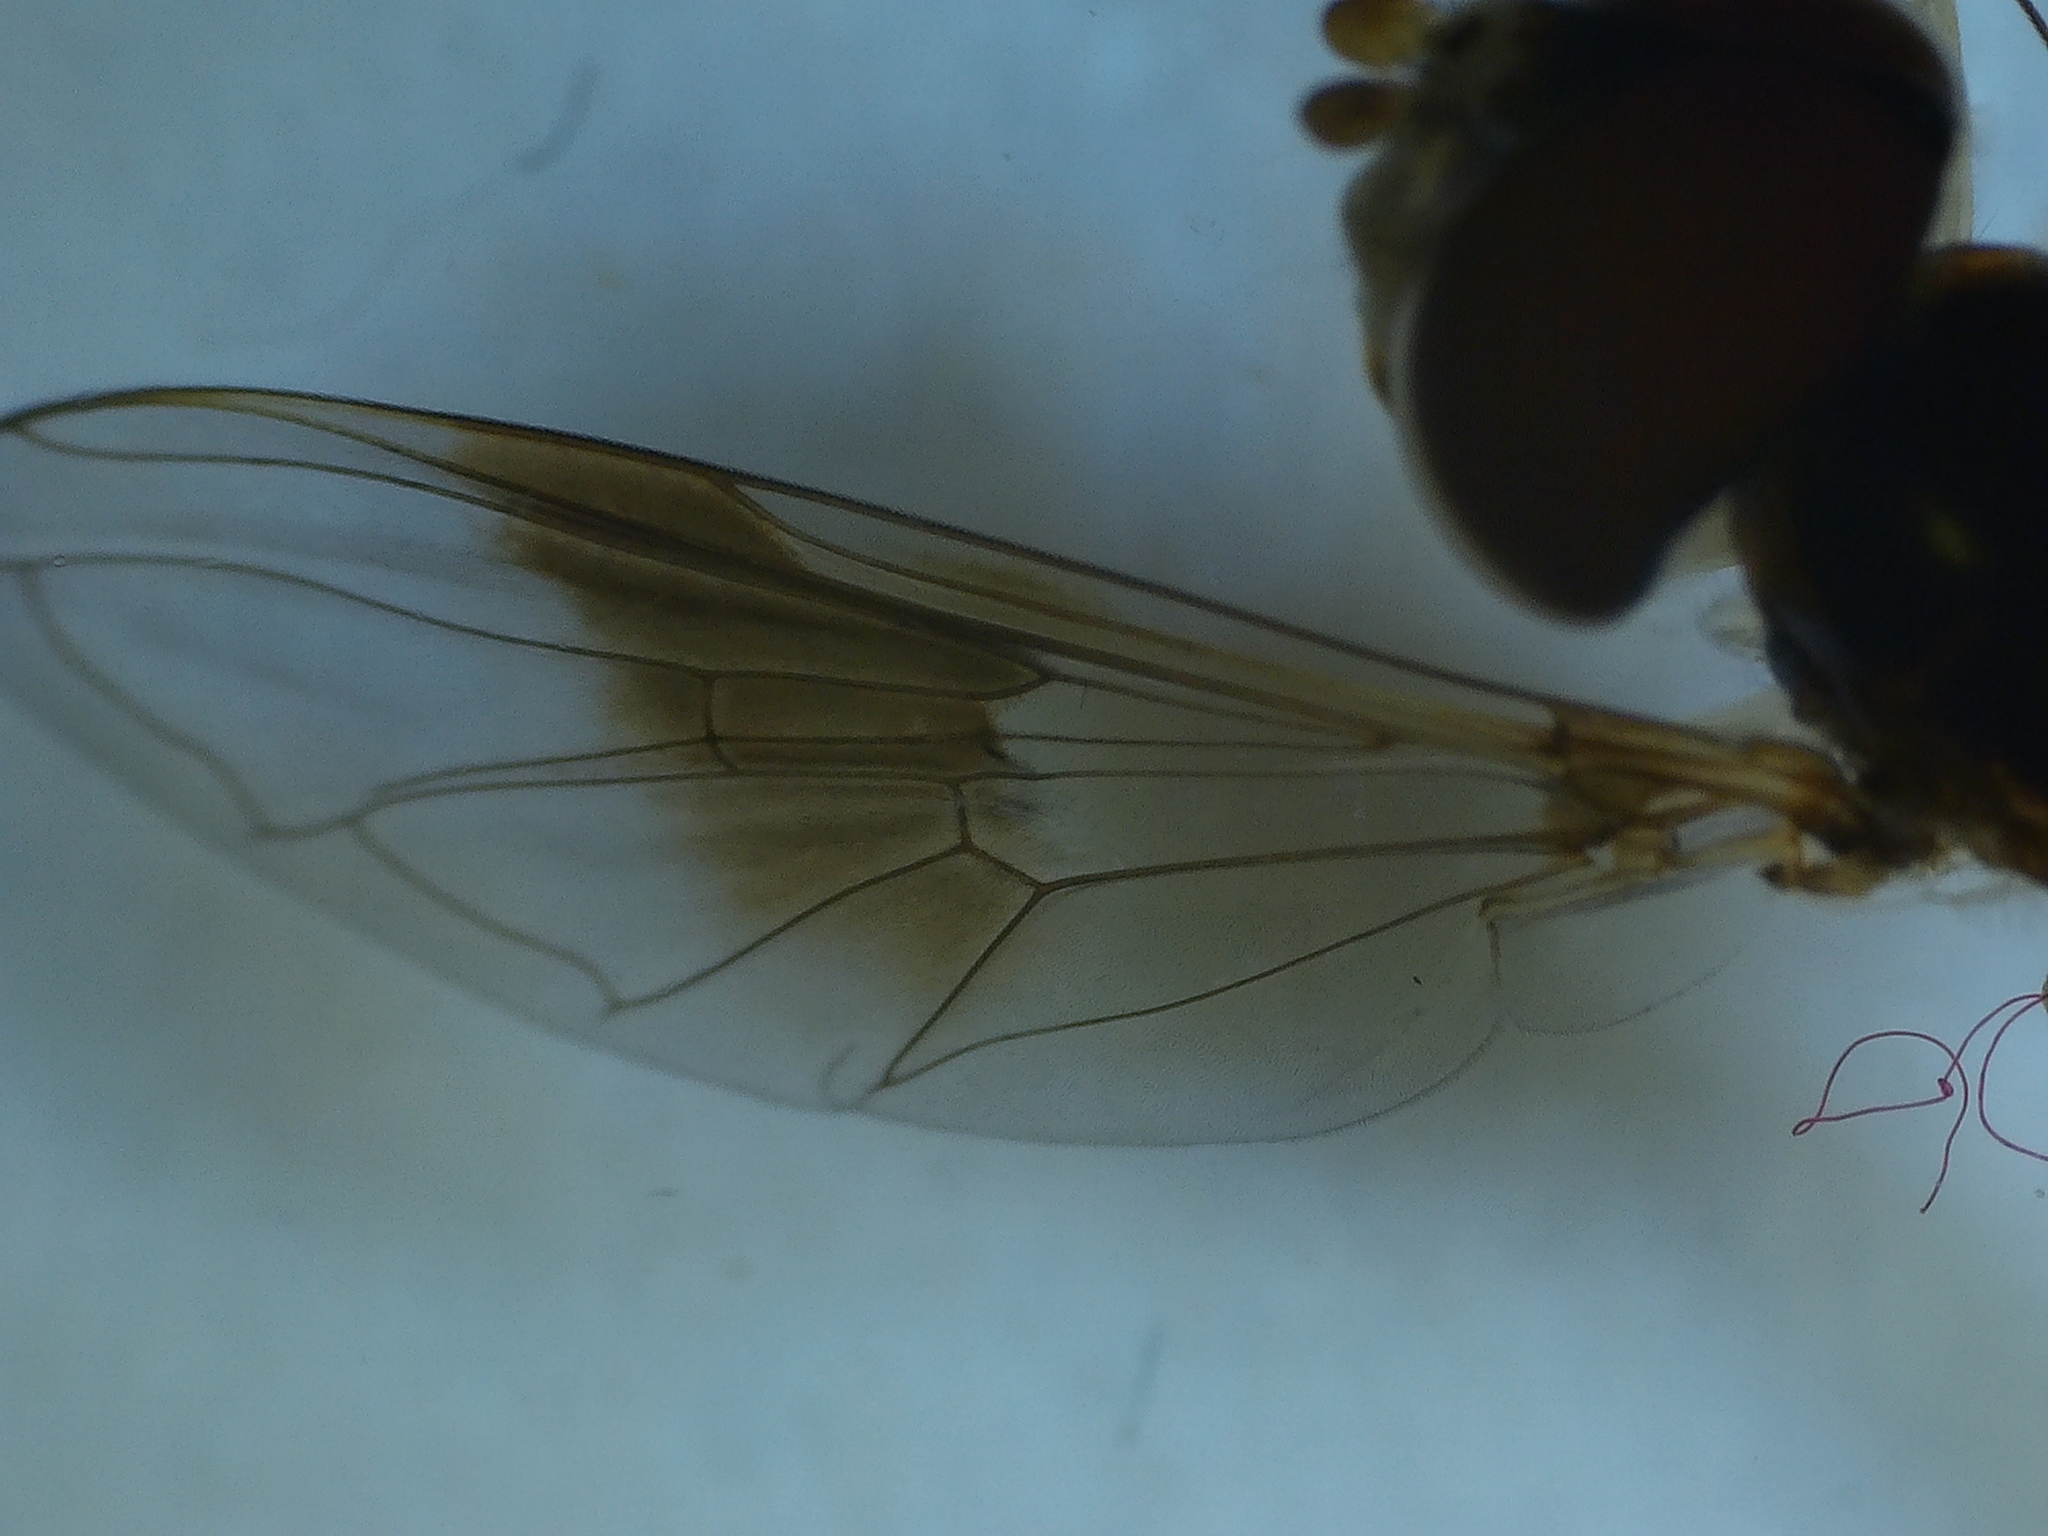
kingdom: Animalia
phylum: Arthropoda
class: Insecta
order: Diptera
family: Syrphidae
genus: Hypocritanus
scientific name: Hypocritanus fascipennis
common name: Eastern band-winged hover fly
